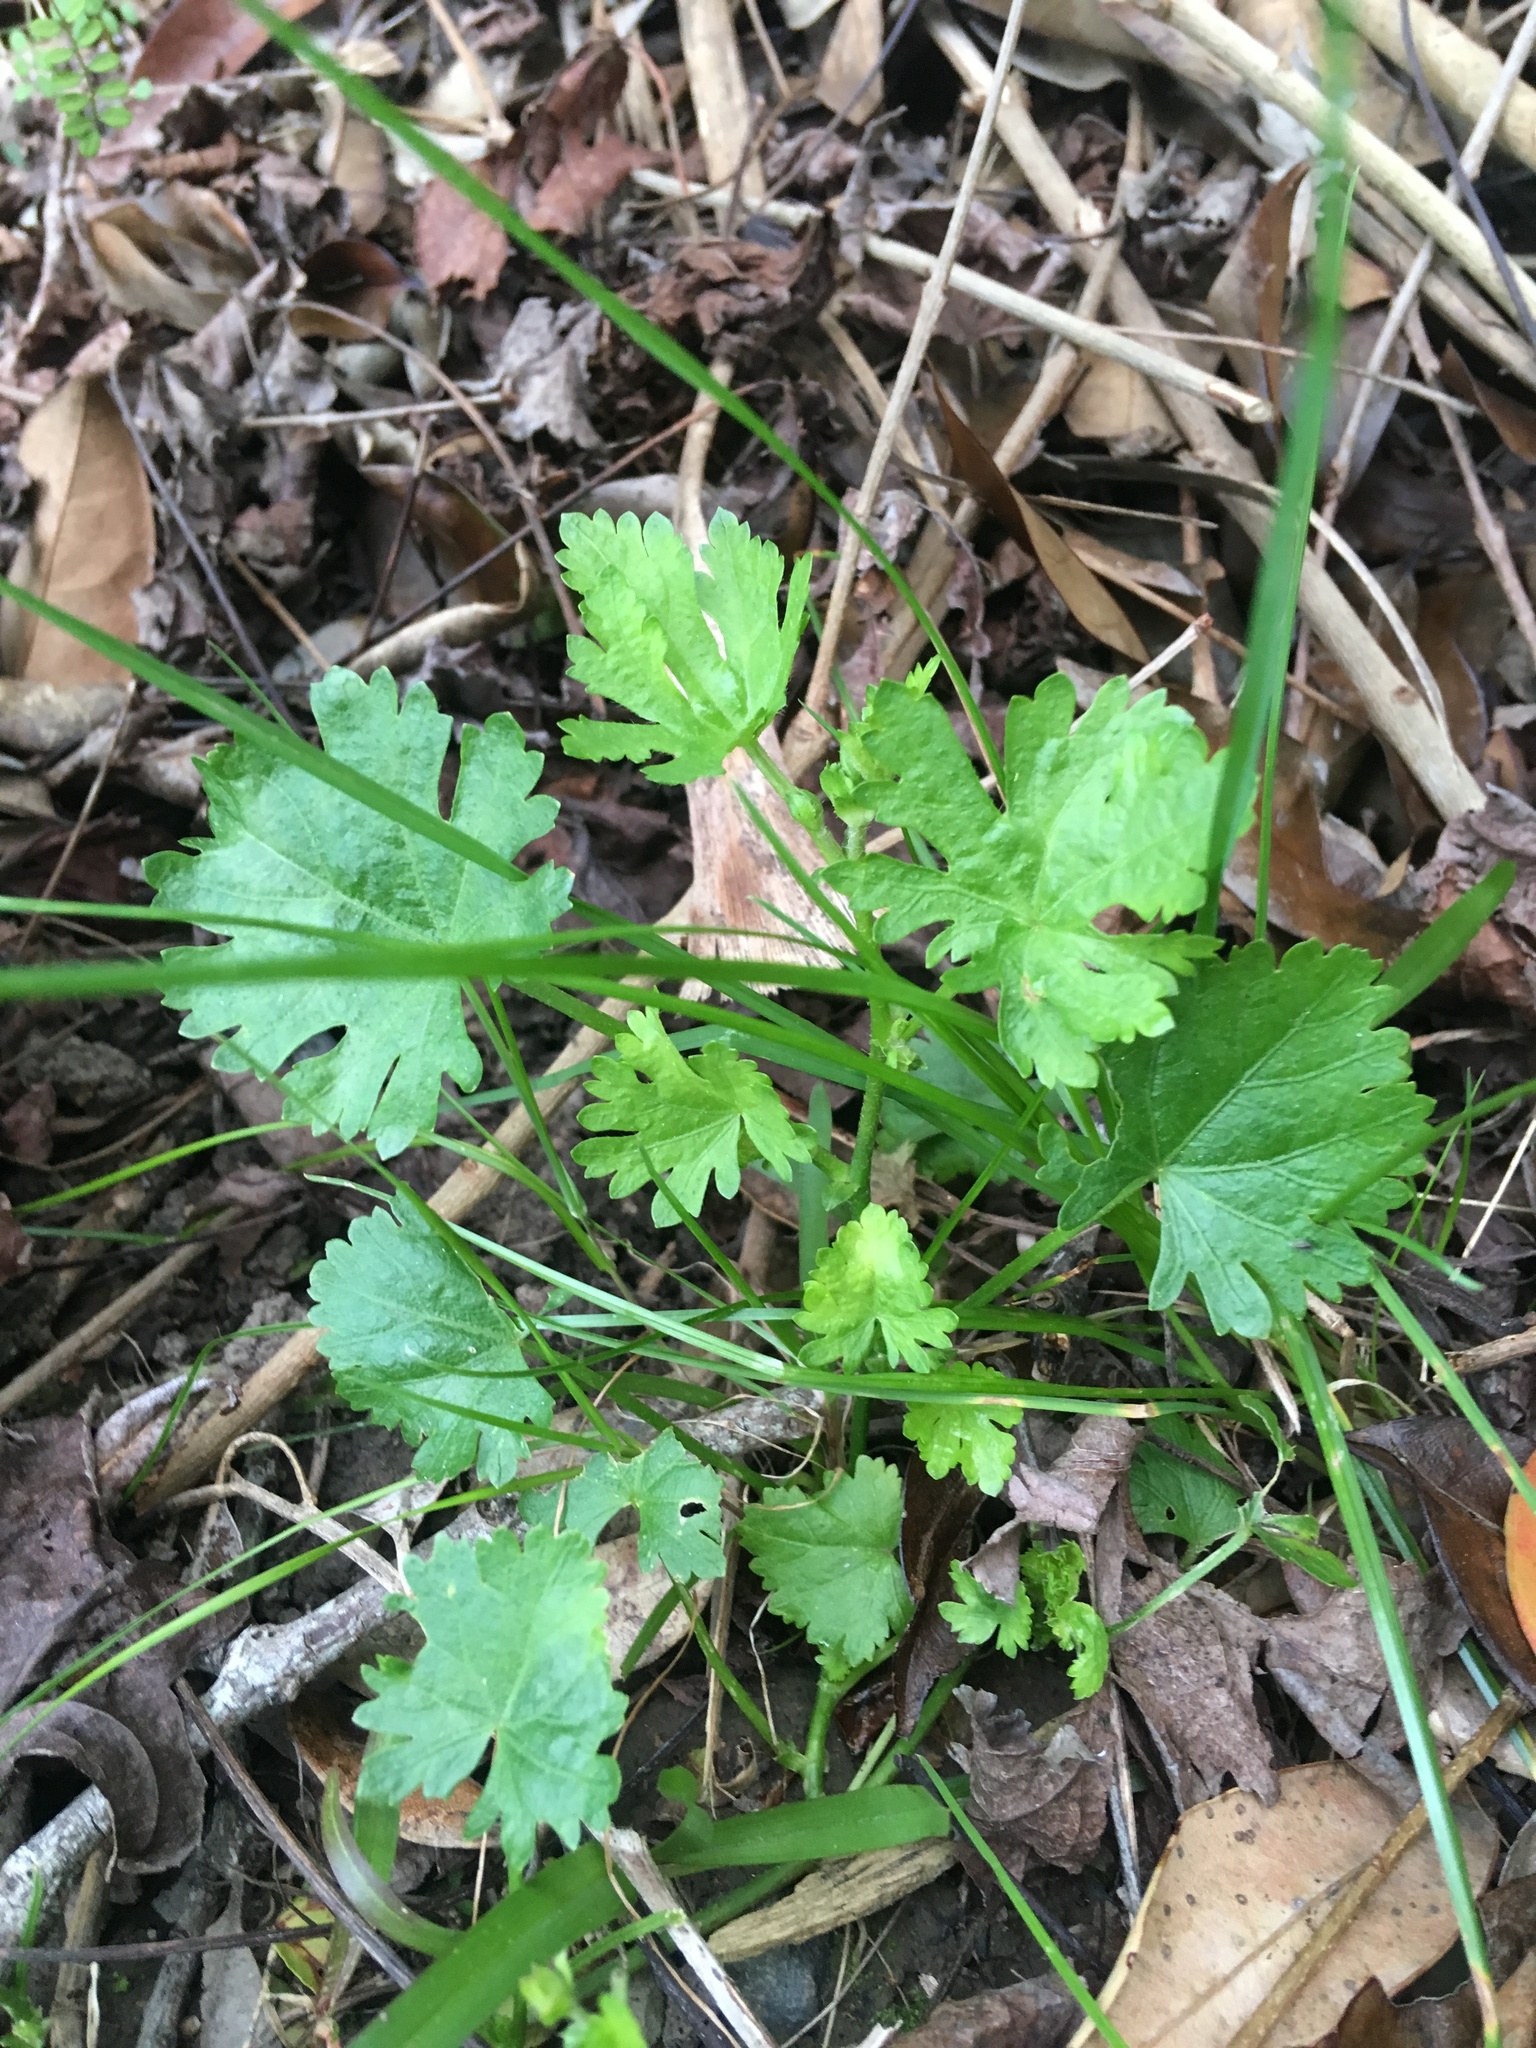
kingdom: Plantae
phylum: Tracheophyta
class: Magnoliopsida
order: Malvales
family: Malvaceae
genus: Modiola
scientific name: Modiola caroliniana
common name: Carolina bristlemallow
